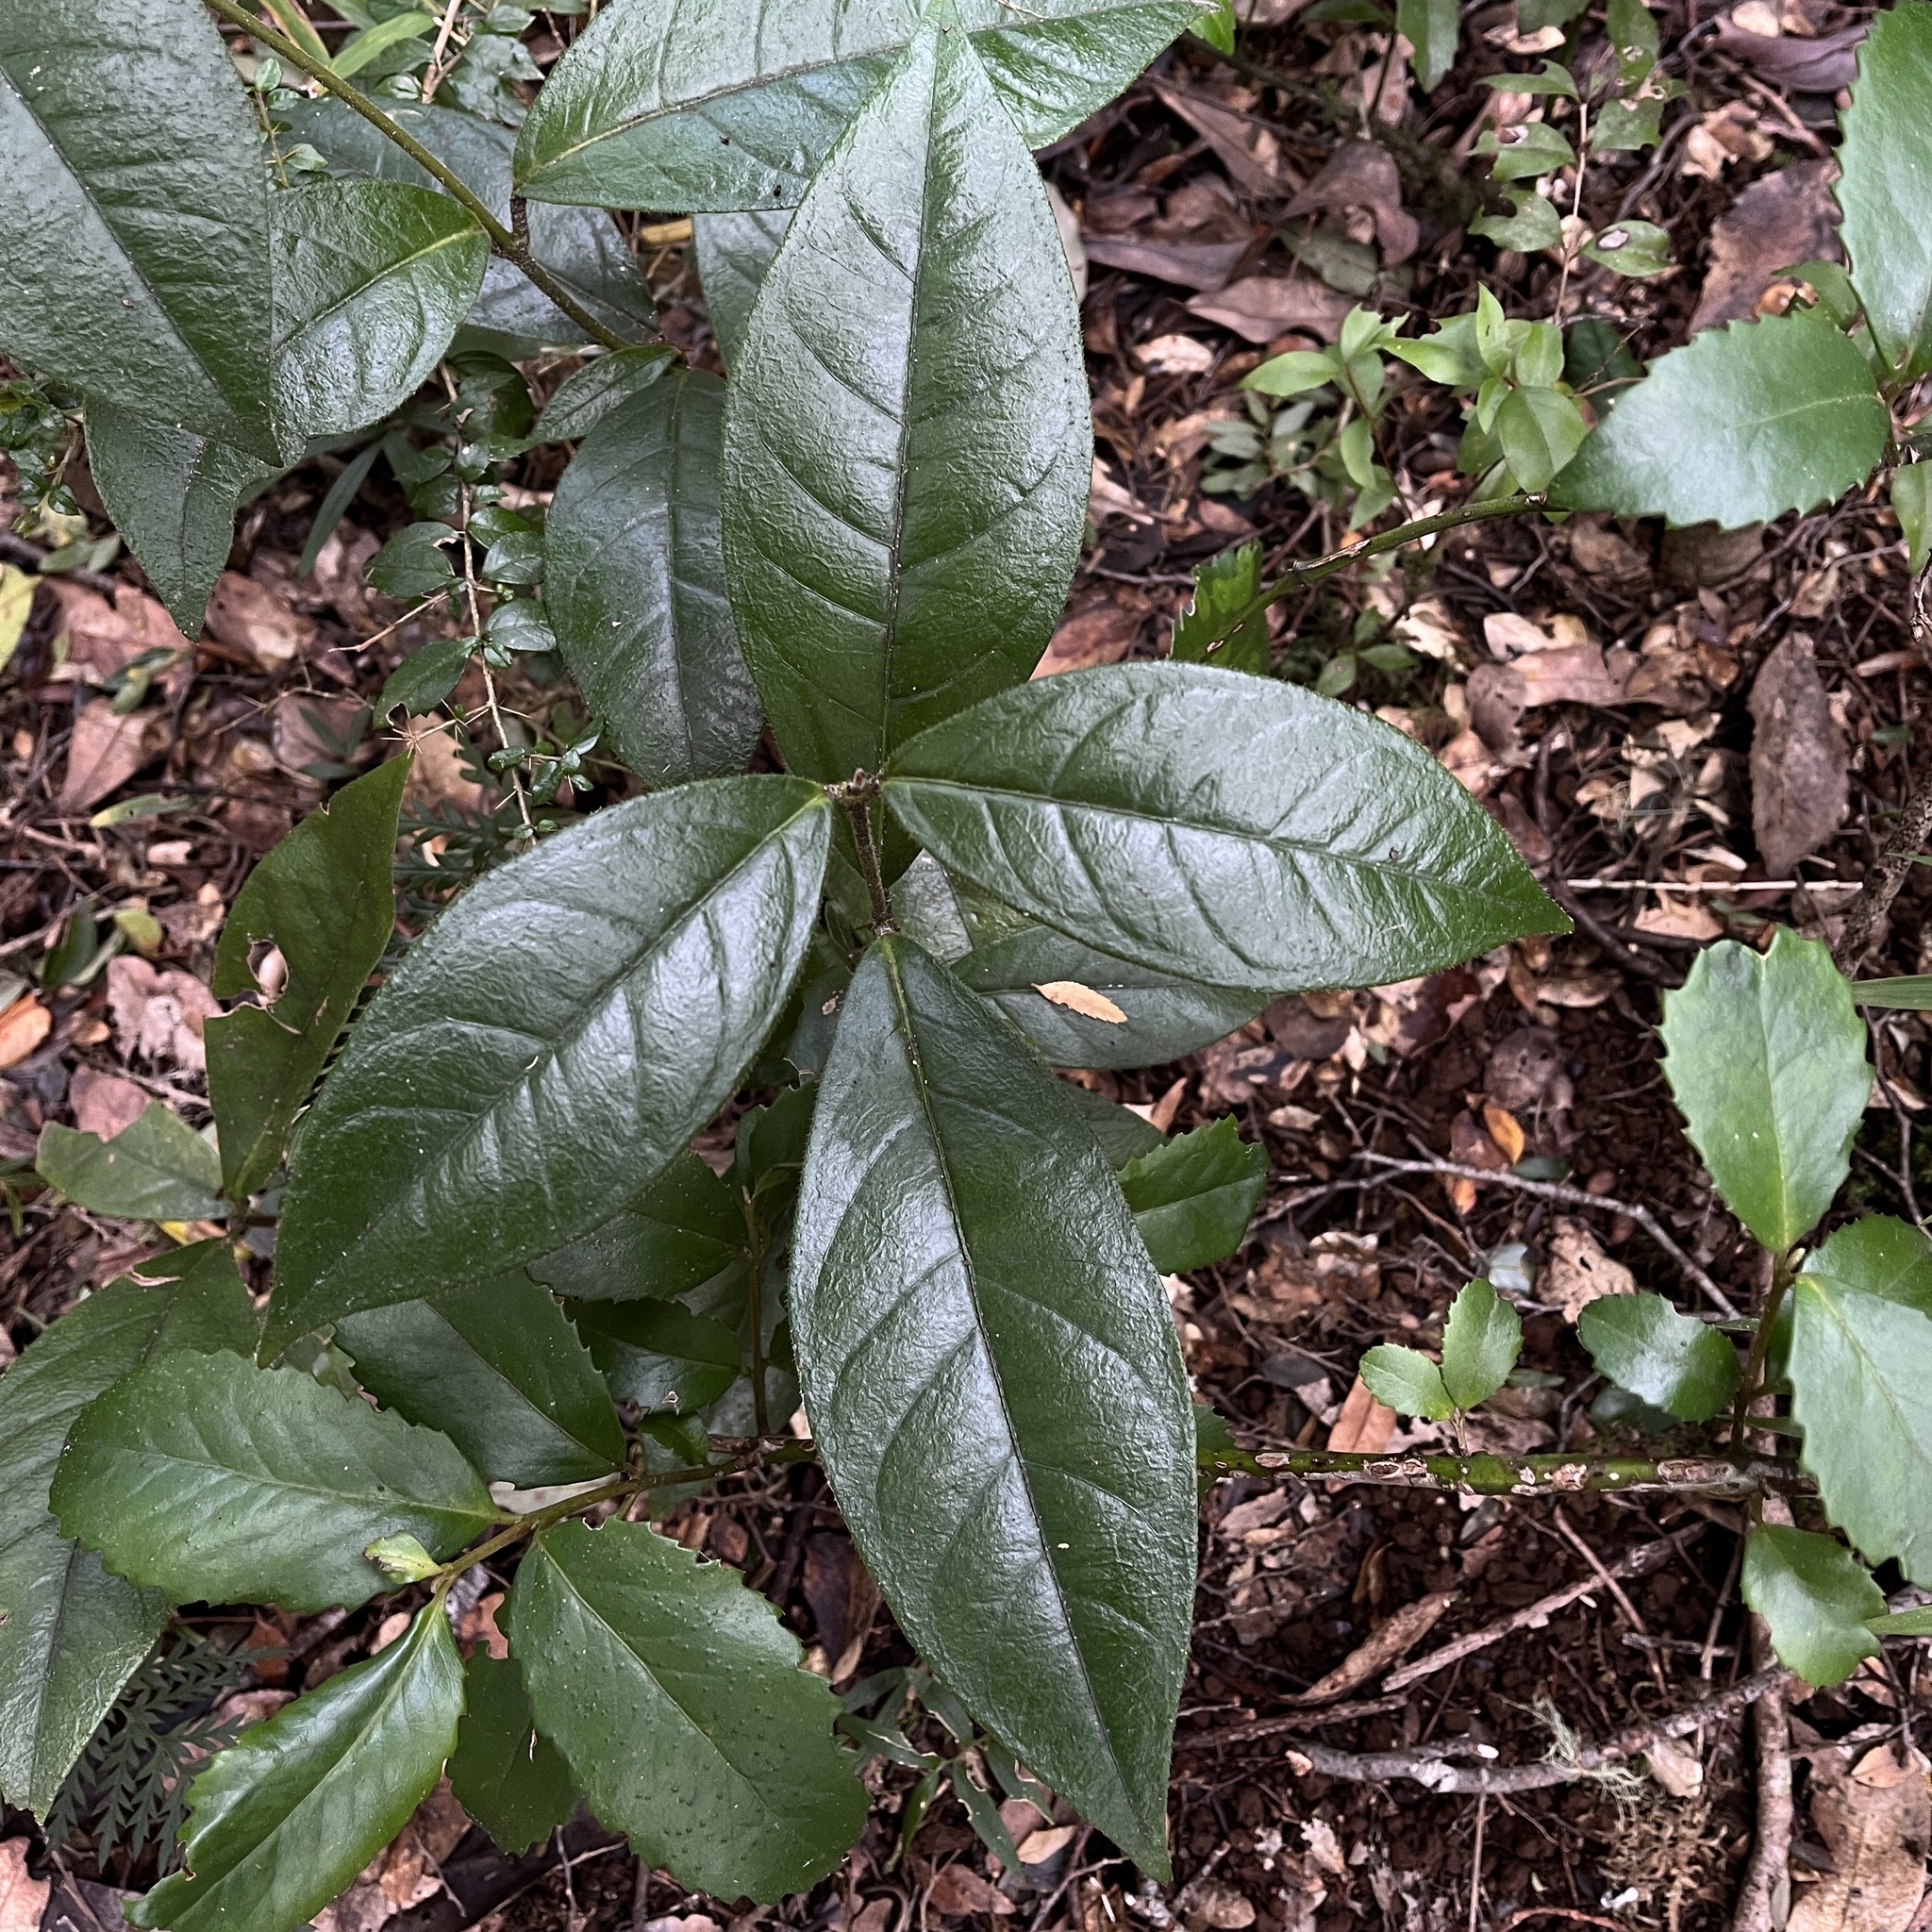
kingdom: Plantae
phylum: Tracheophyta
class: Magnoliopsida
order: Gentianales
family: Apocynaceae
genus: Mandevilla
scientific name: Mandevilla pubescens
